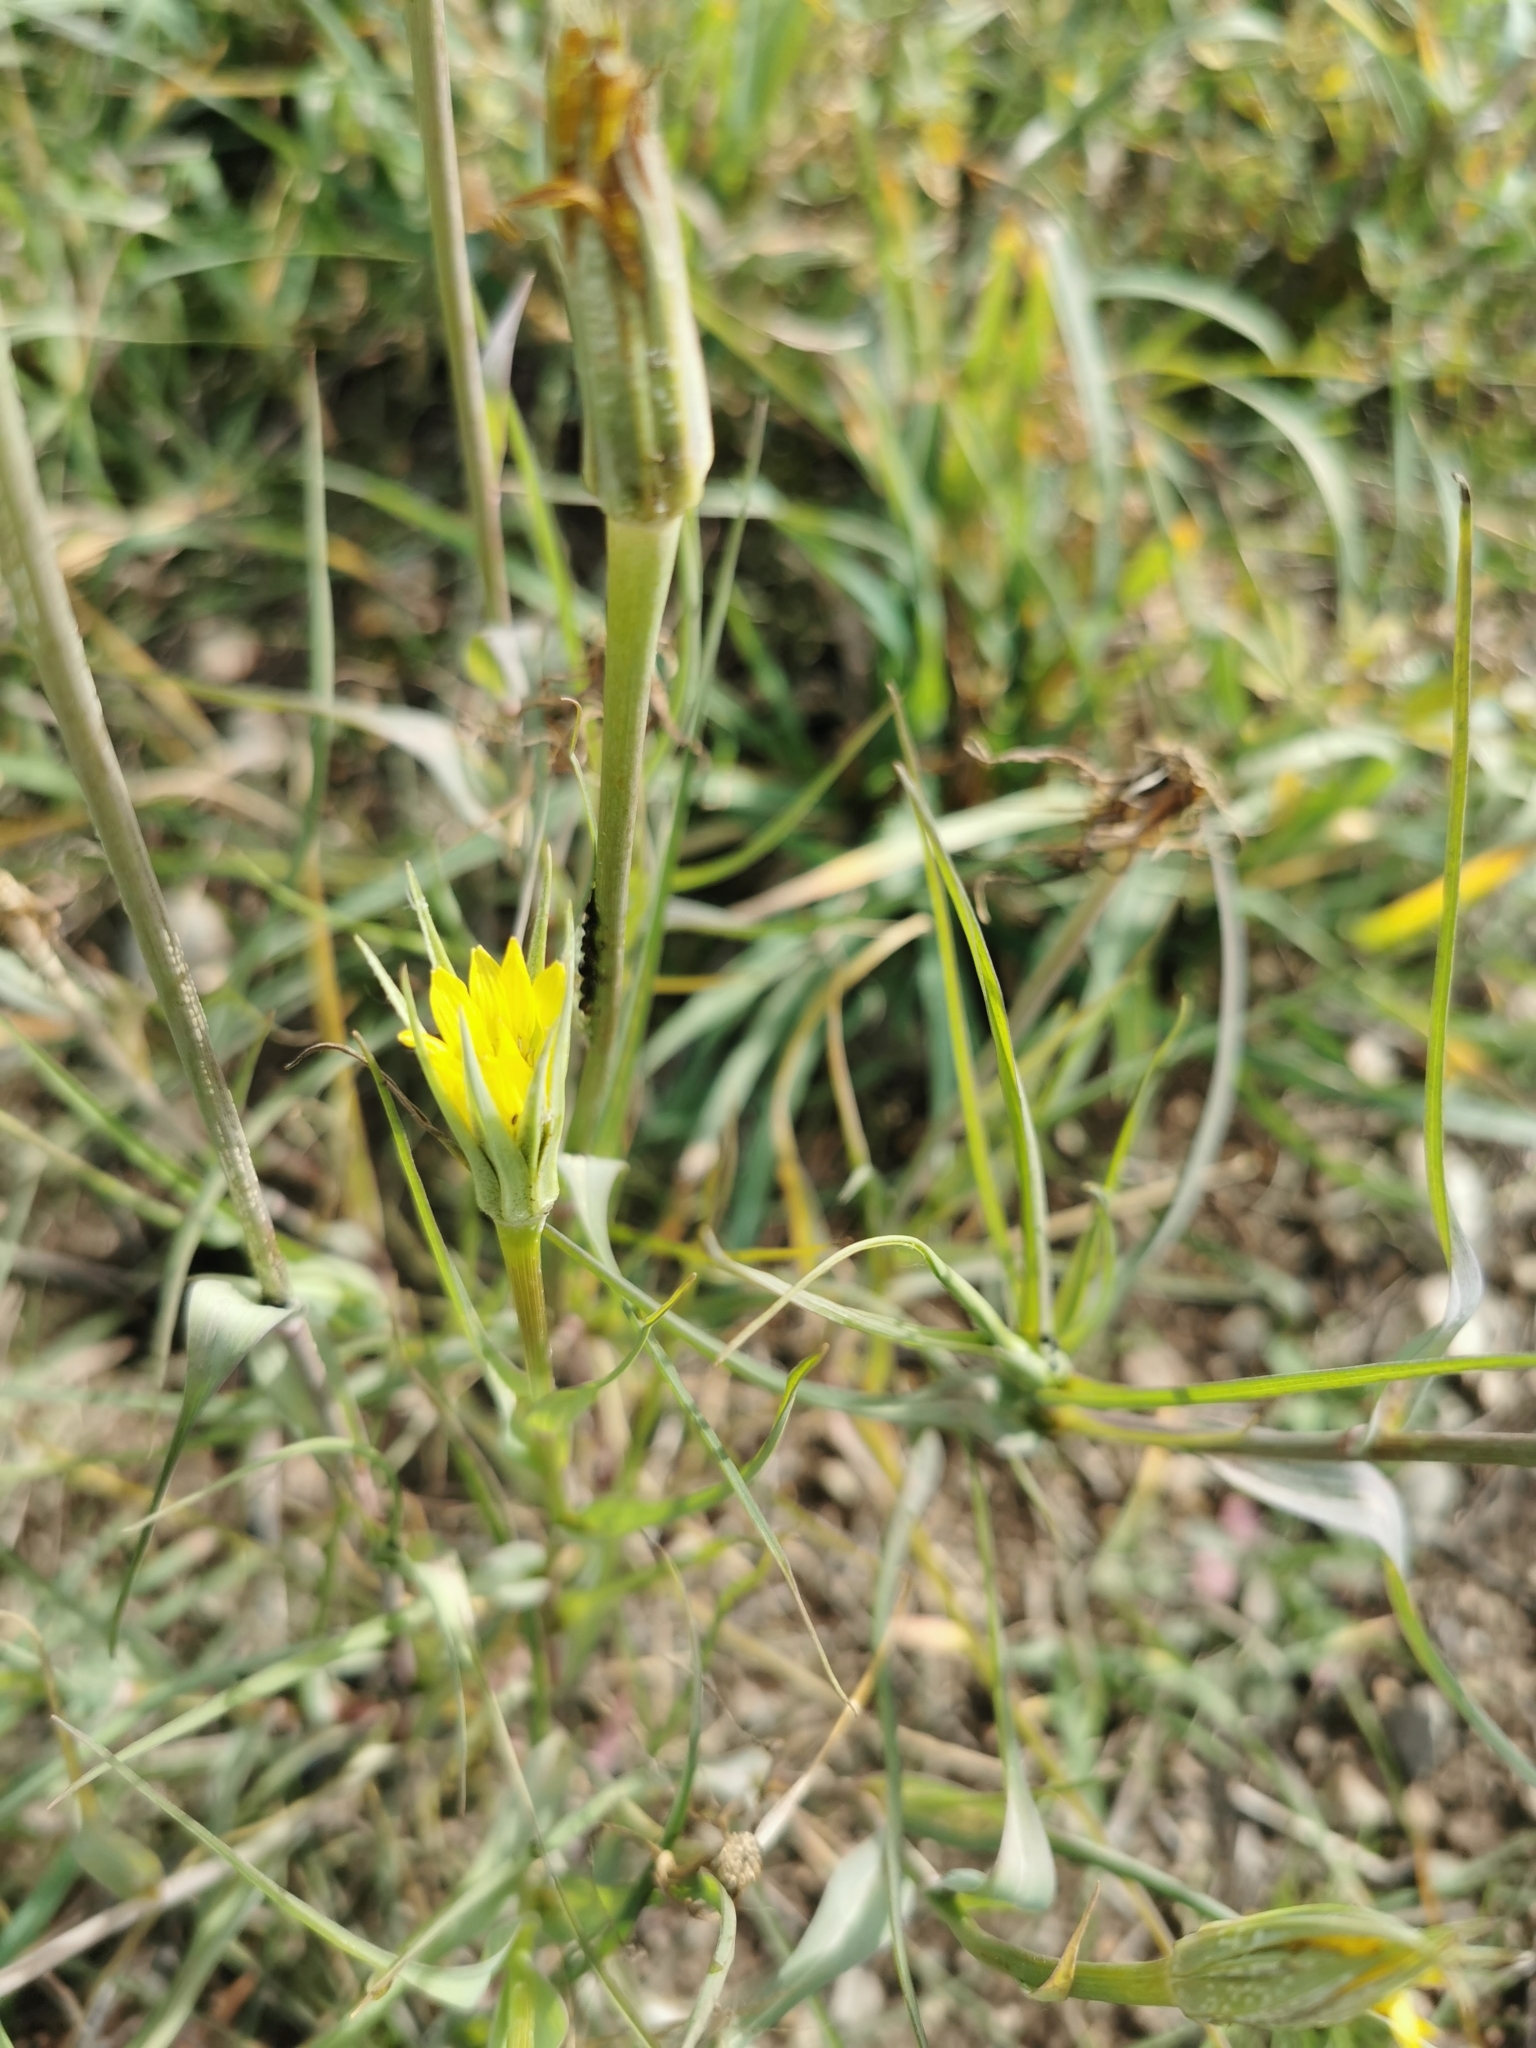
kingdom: Plantae
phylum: Tracheophyta
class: Magnoliopsida
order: Asterales
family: Asteraceae
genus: Tragopogon
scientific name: Tragopogon dubius
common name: Yellow salsify
